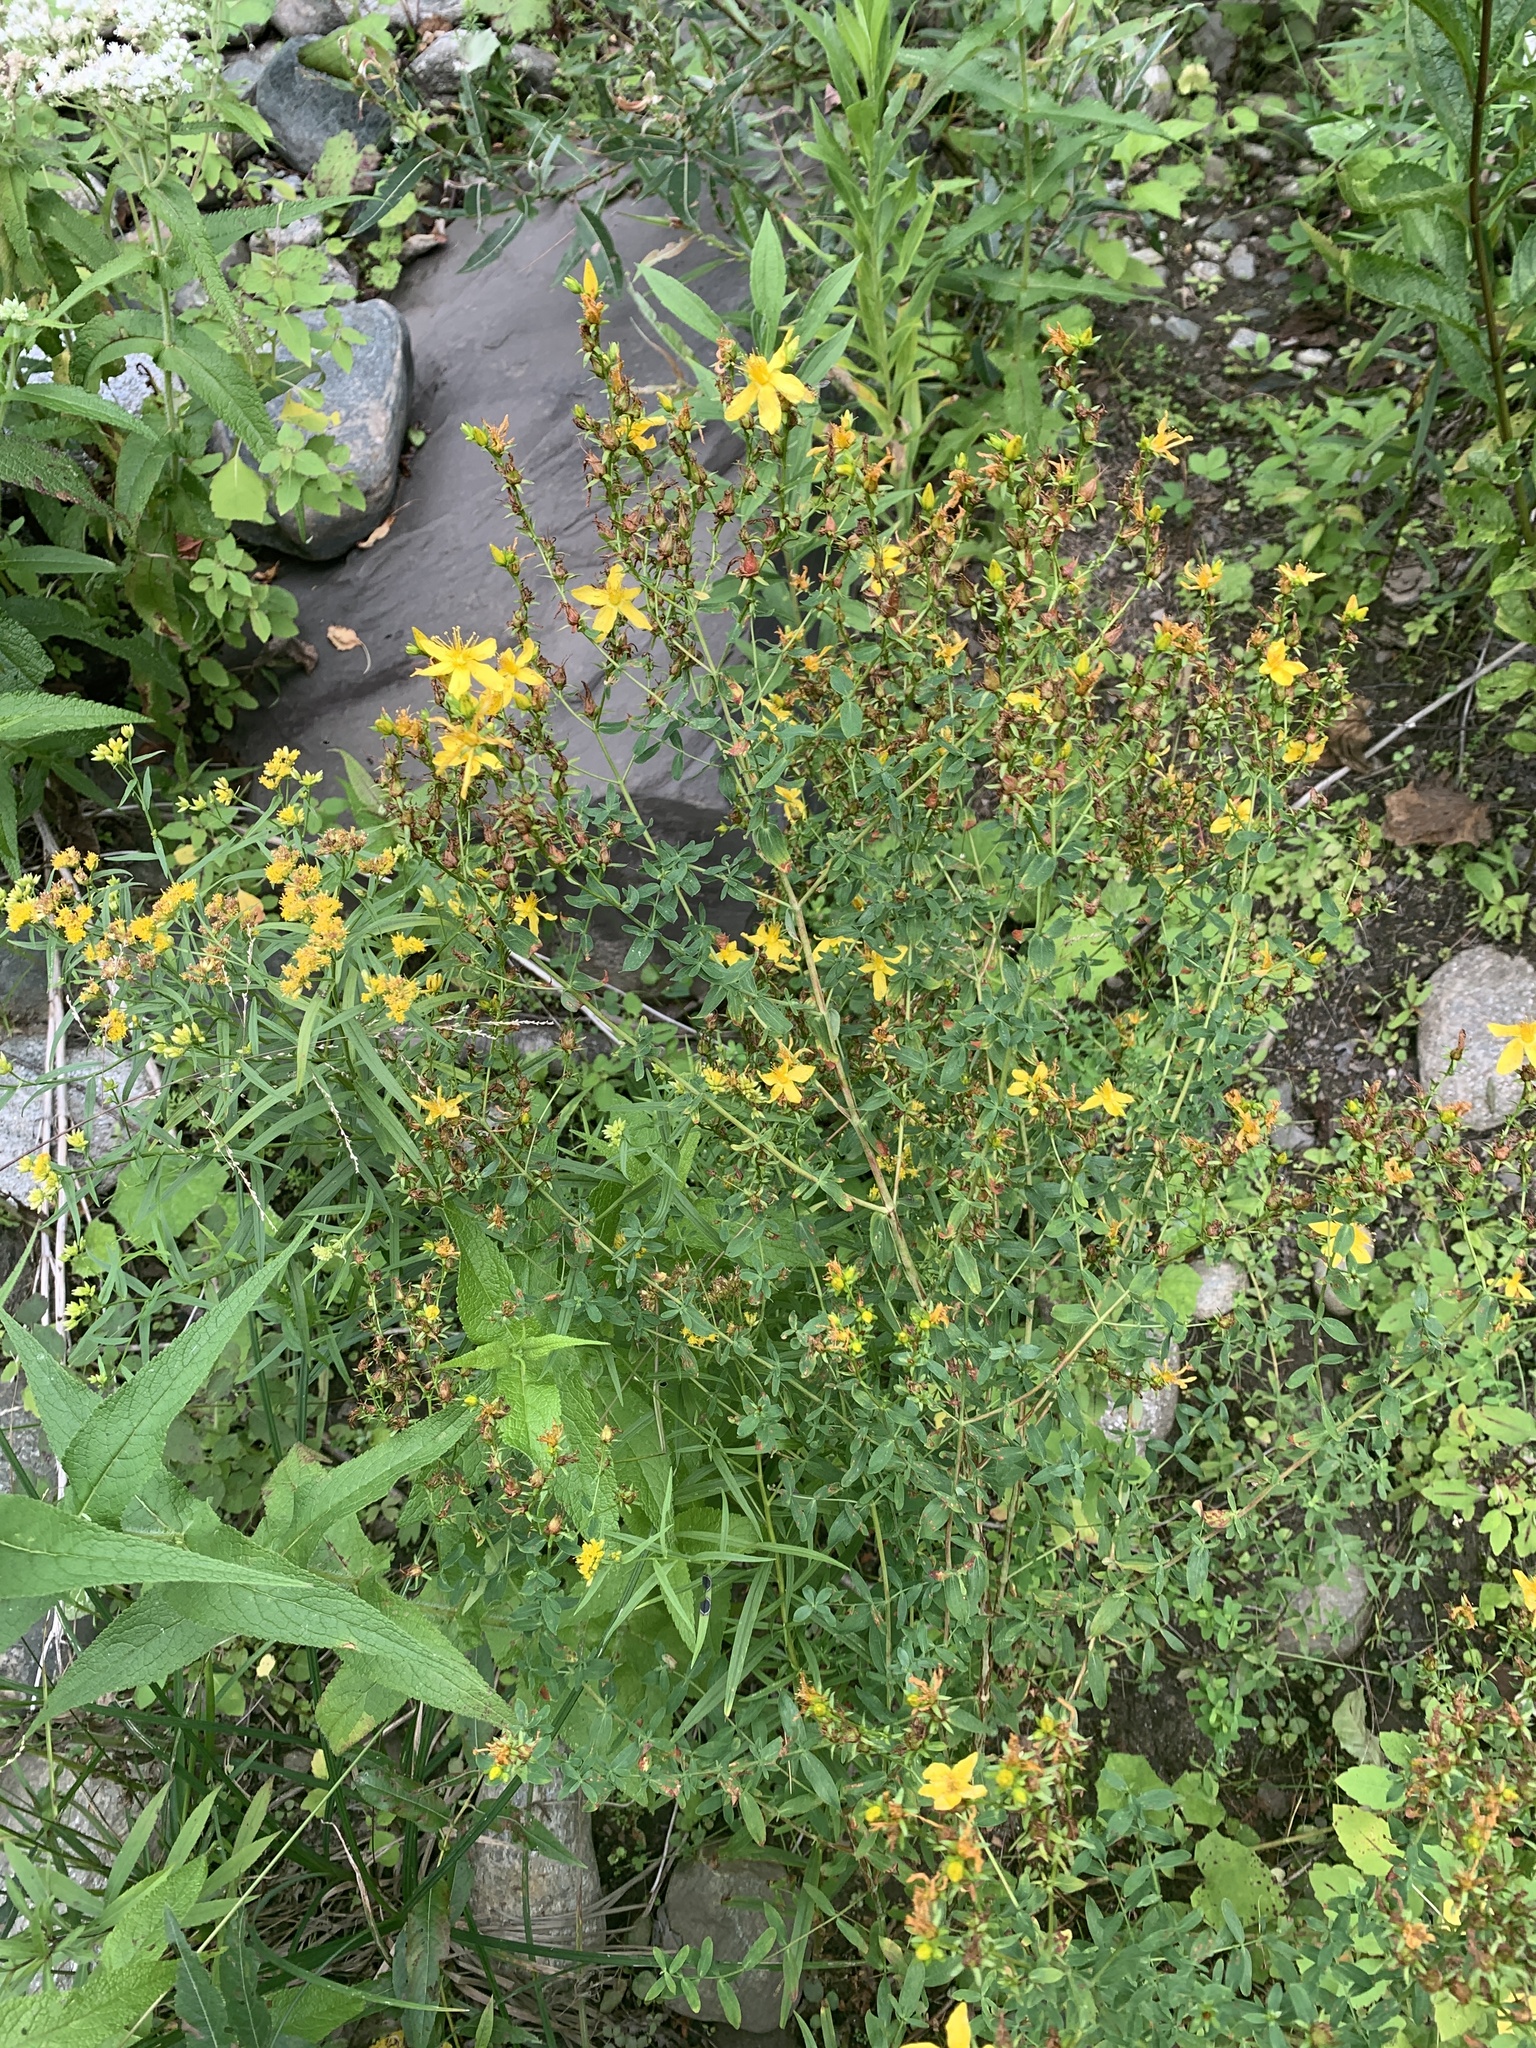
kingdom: Plantae
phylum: Tracheophyta
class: Magnoliopsida
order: Malpighiales
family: Hypericaceae
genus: Hypericum
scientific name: Hypericum perforatum
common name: Common st. johnswort
